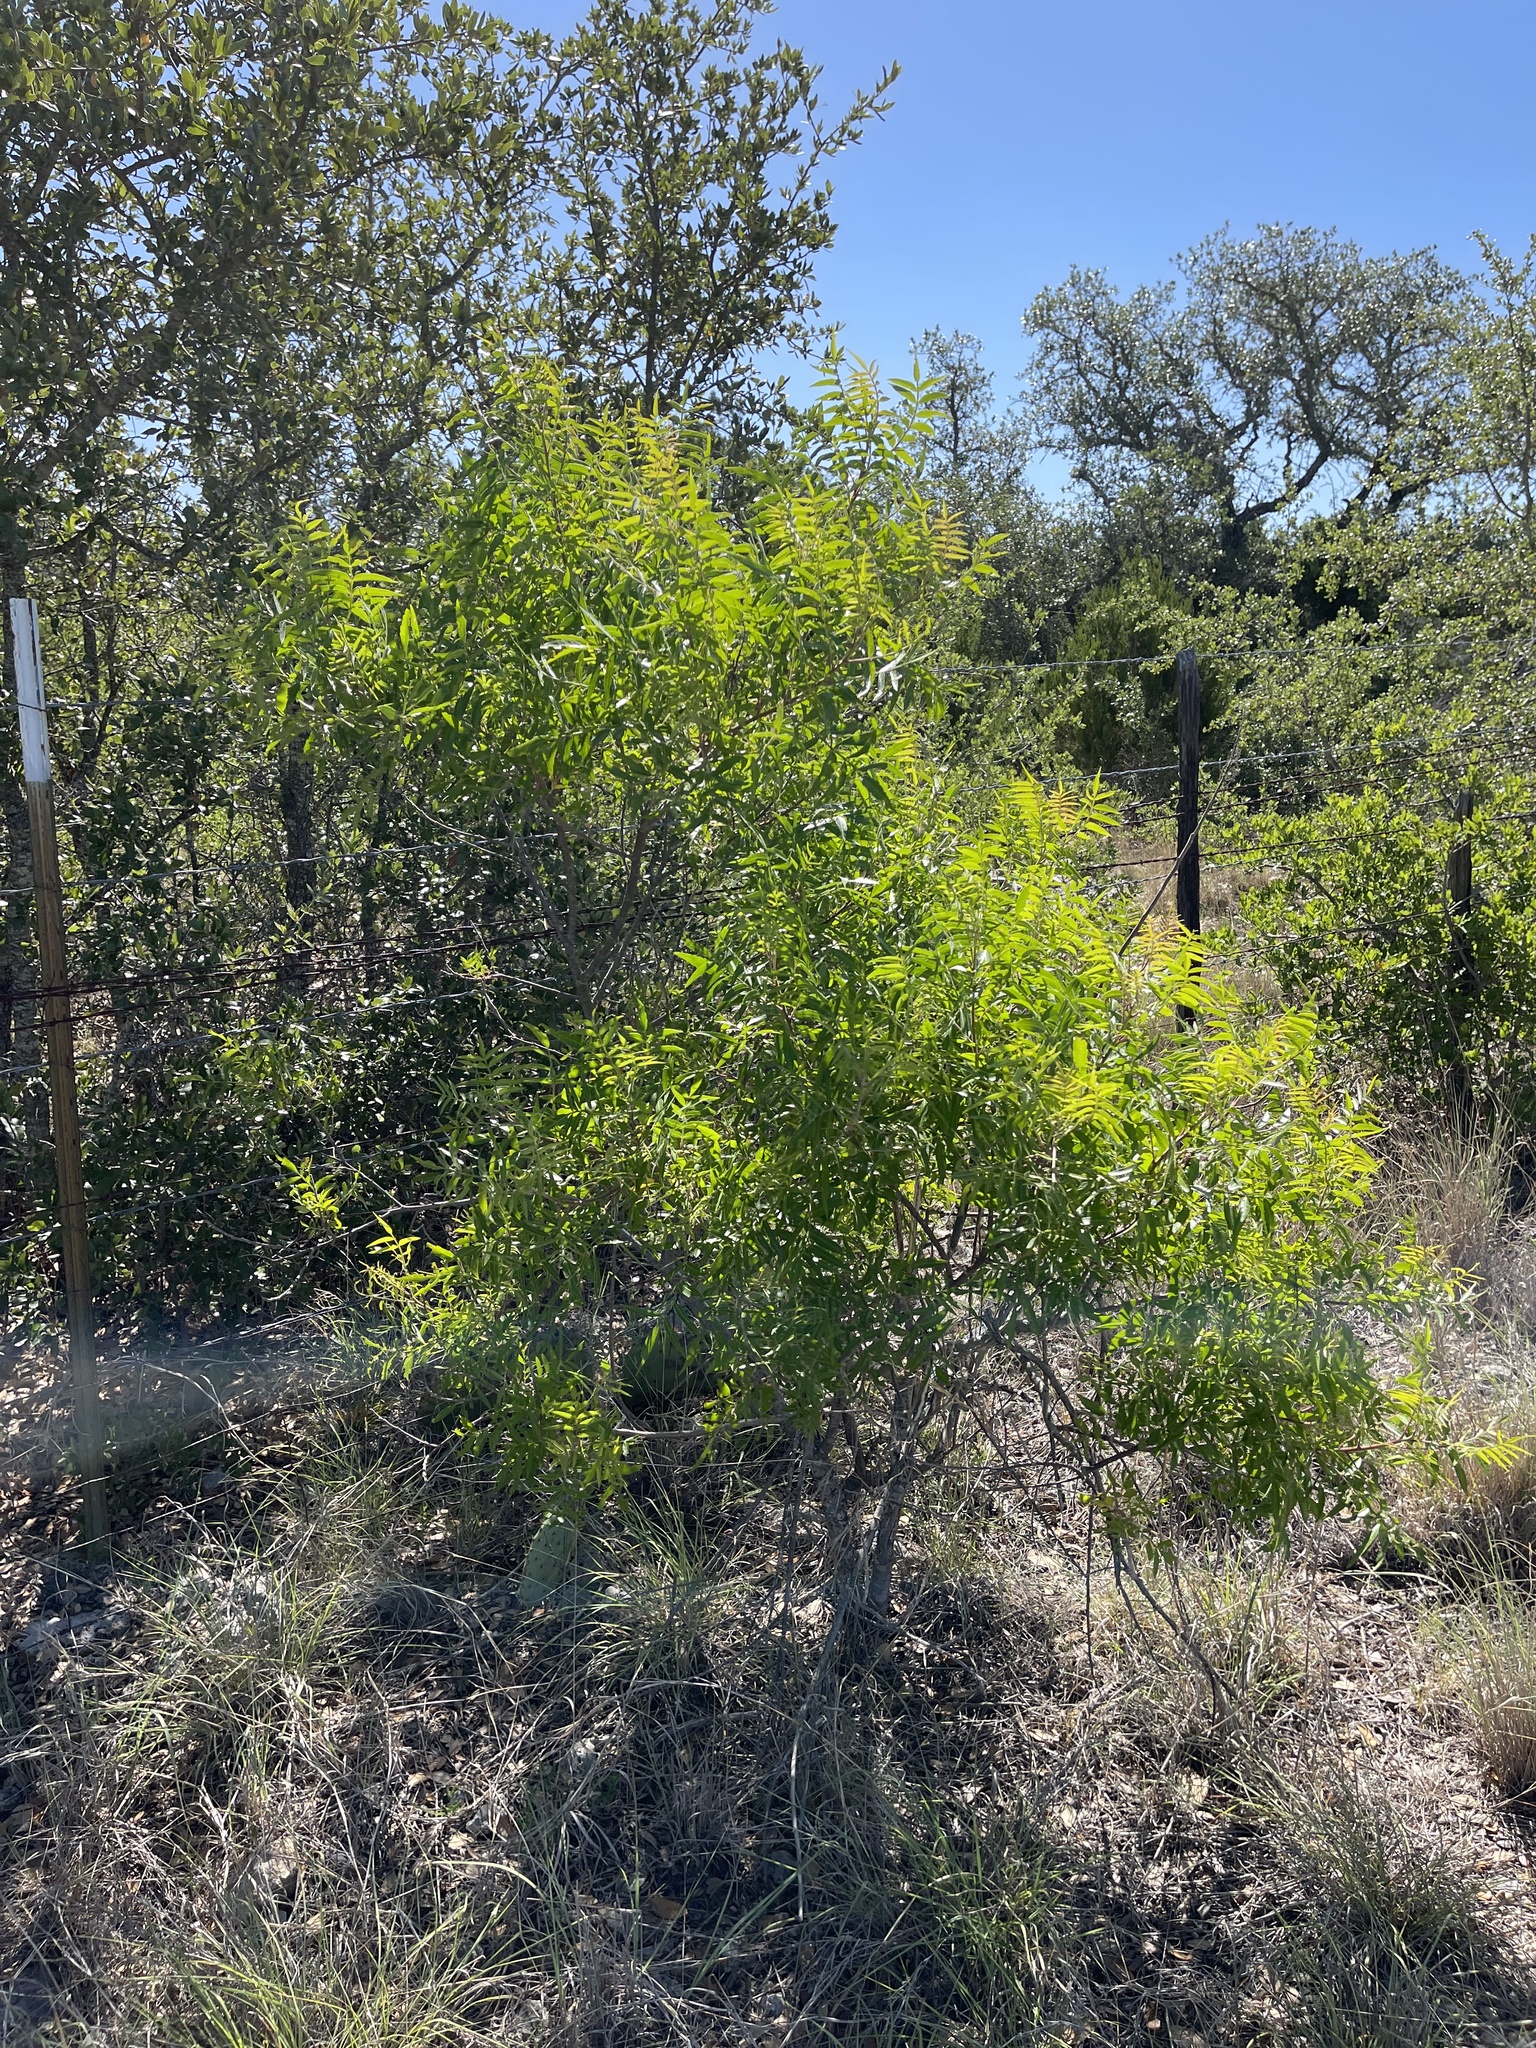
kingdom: Plantae
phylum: Tracheophyta
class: Magnoliopsida
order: Sapindales
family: Anacardiaceae
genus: Rhus
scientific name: Rhus lanceolata
